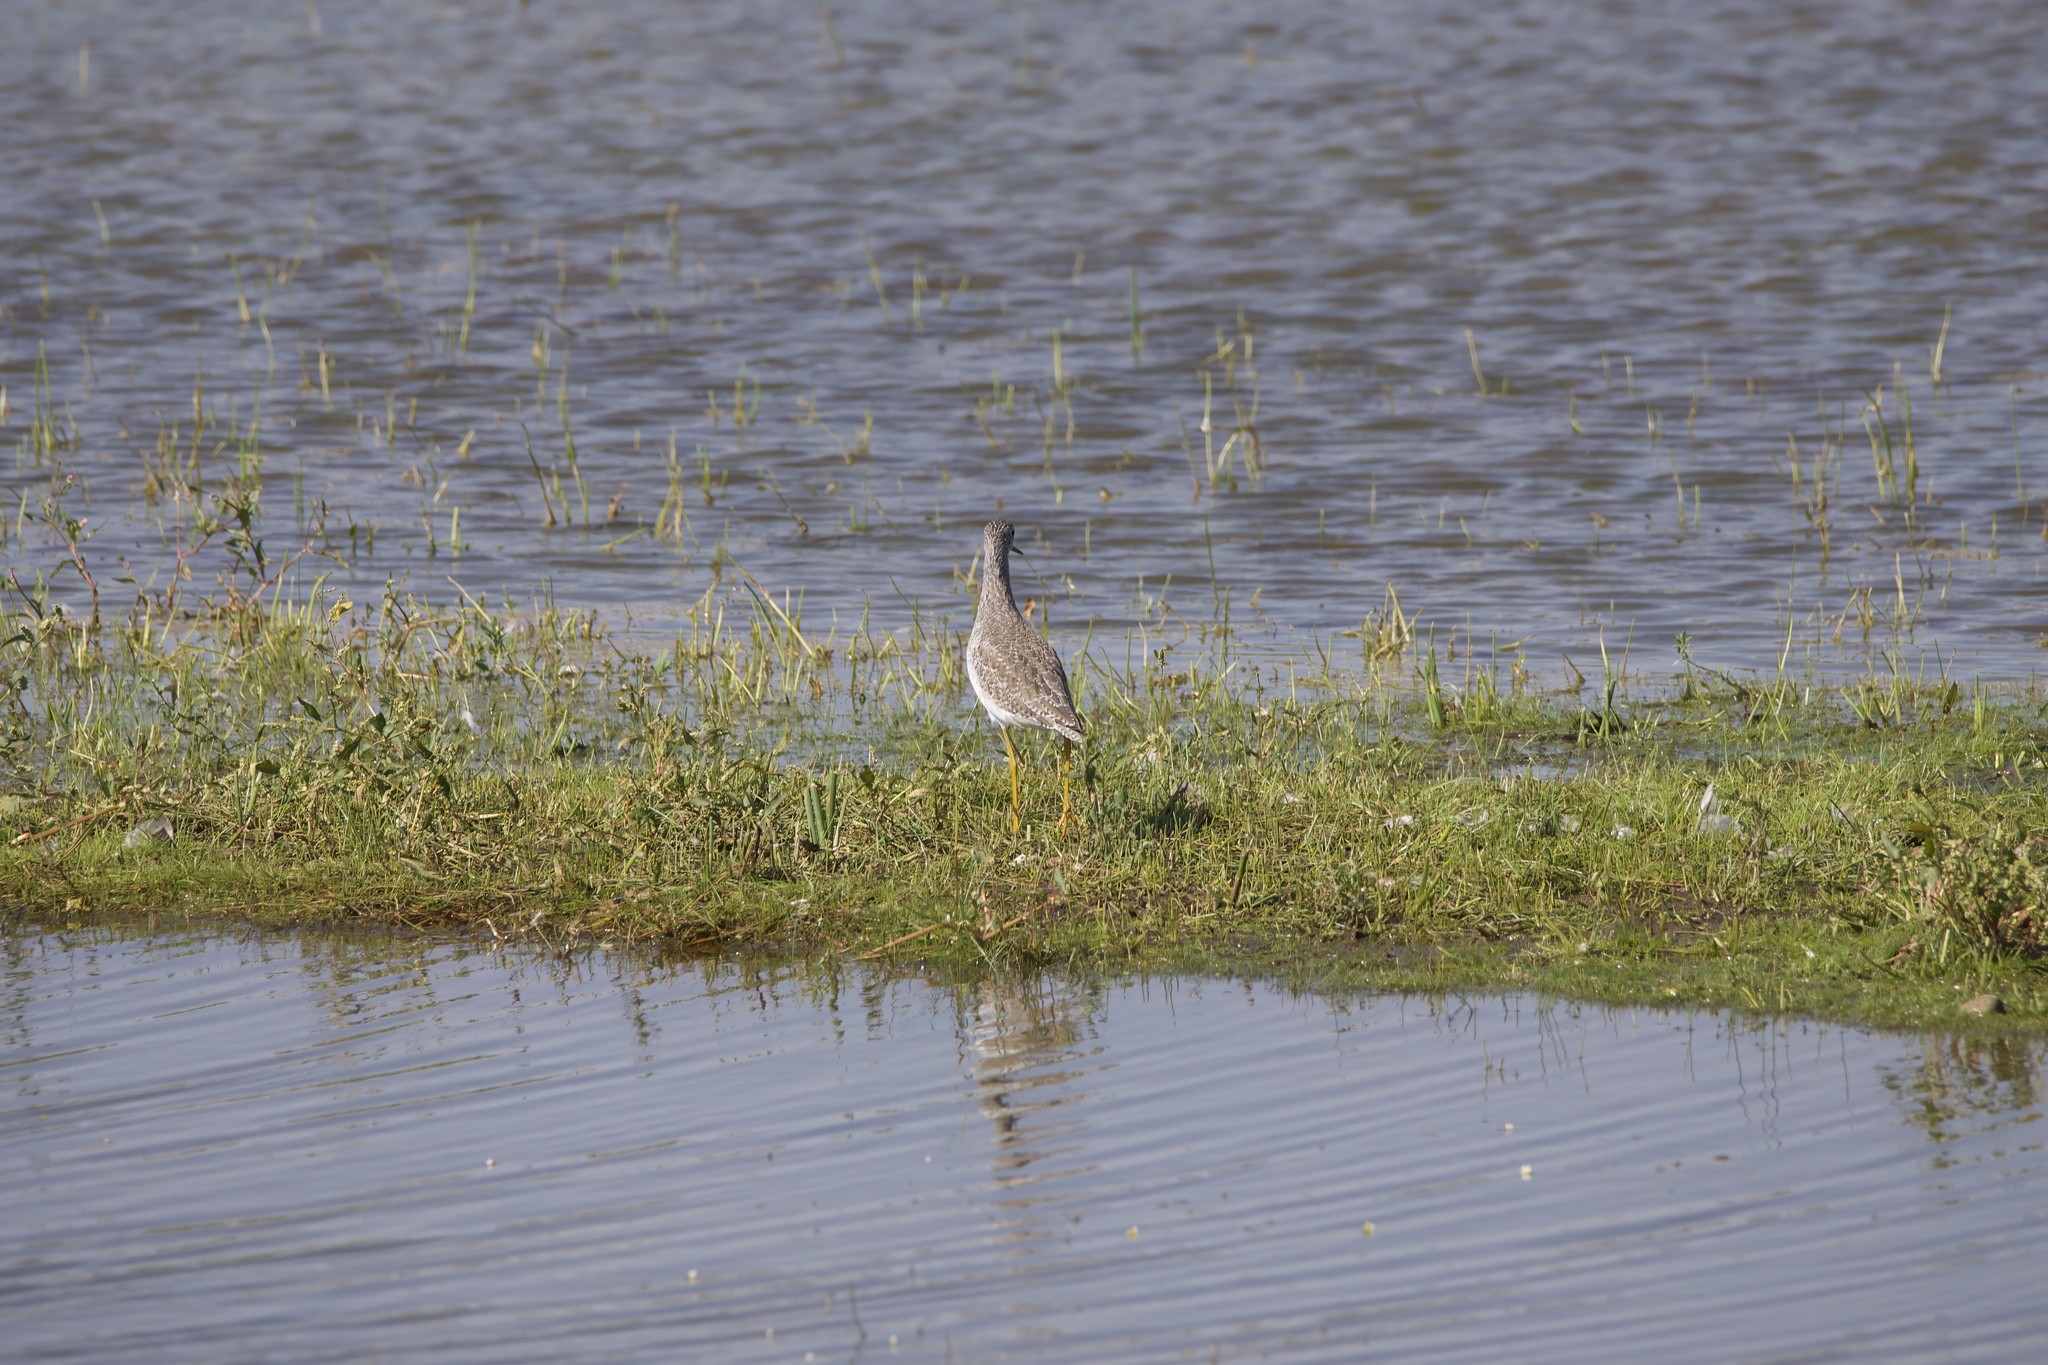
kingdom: Animalia
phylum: Chordata
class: Aves
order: Charadriiformes
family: Scolopacidae
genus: Tringa
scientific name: Tringa melanoleuca
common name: Greater yellowlegs
